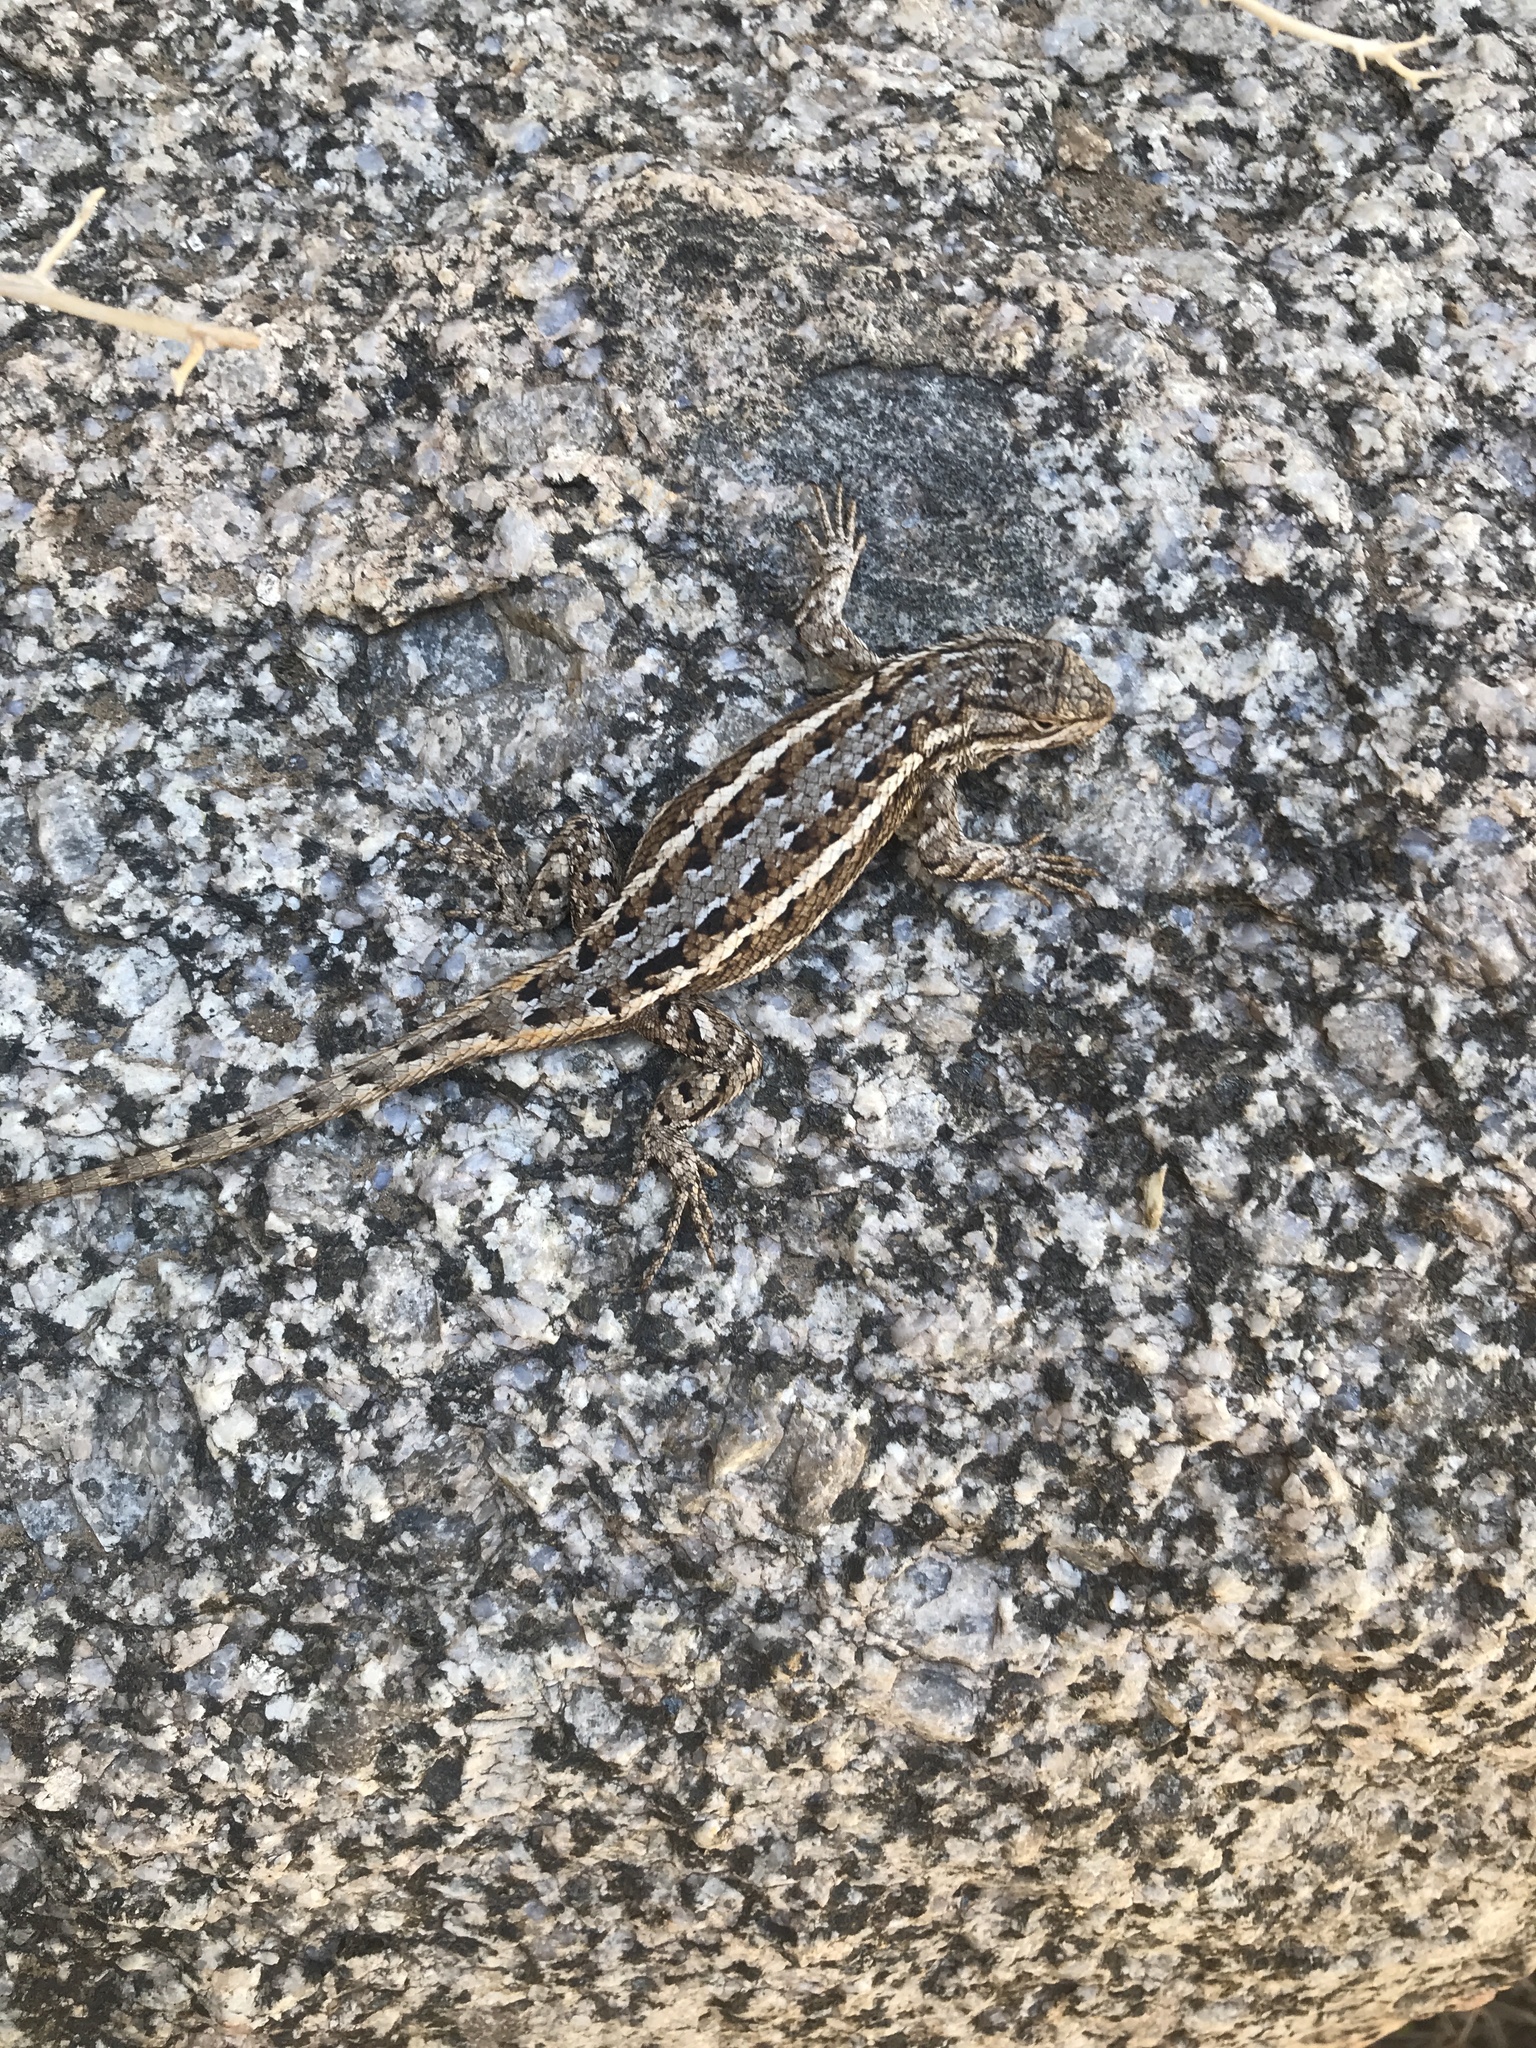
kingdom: Animalia
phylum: Chordata
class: Squamata
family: Phrynosomatidae
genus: Sceloporus
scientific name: Sceloporus cowlesi
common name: White sands prairie lizard
